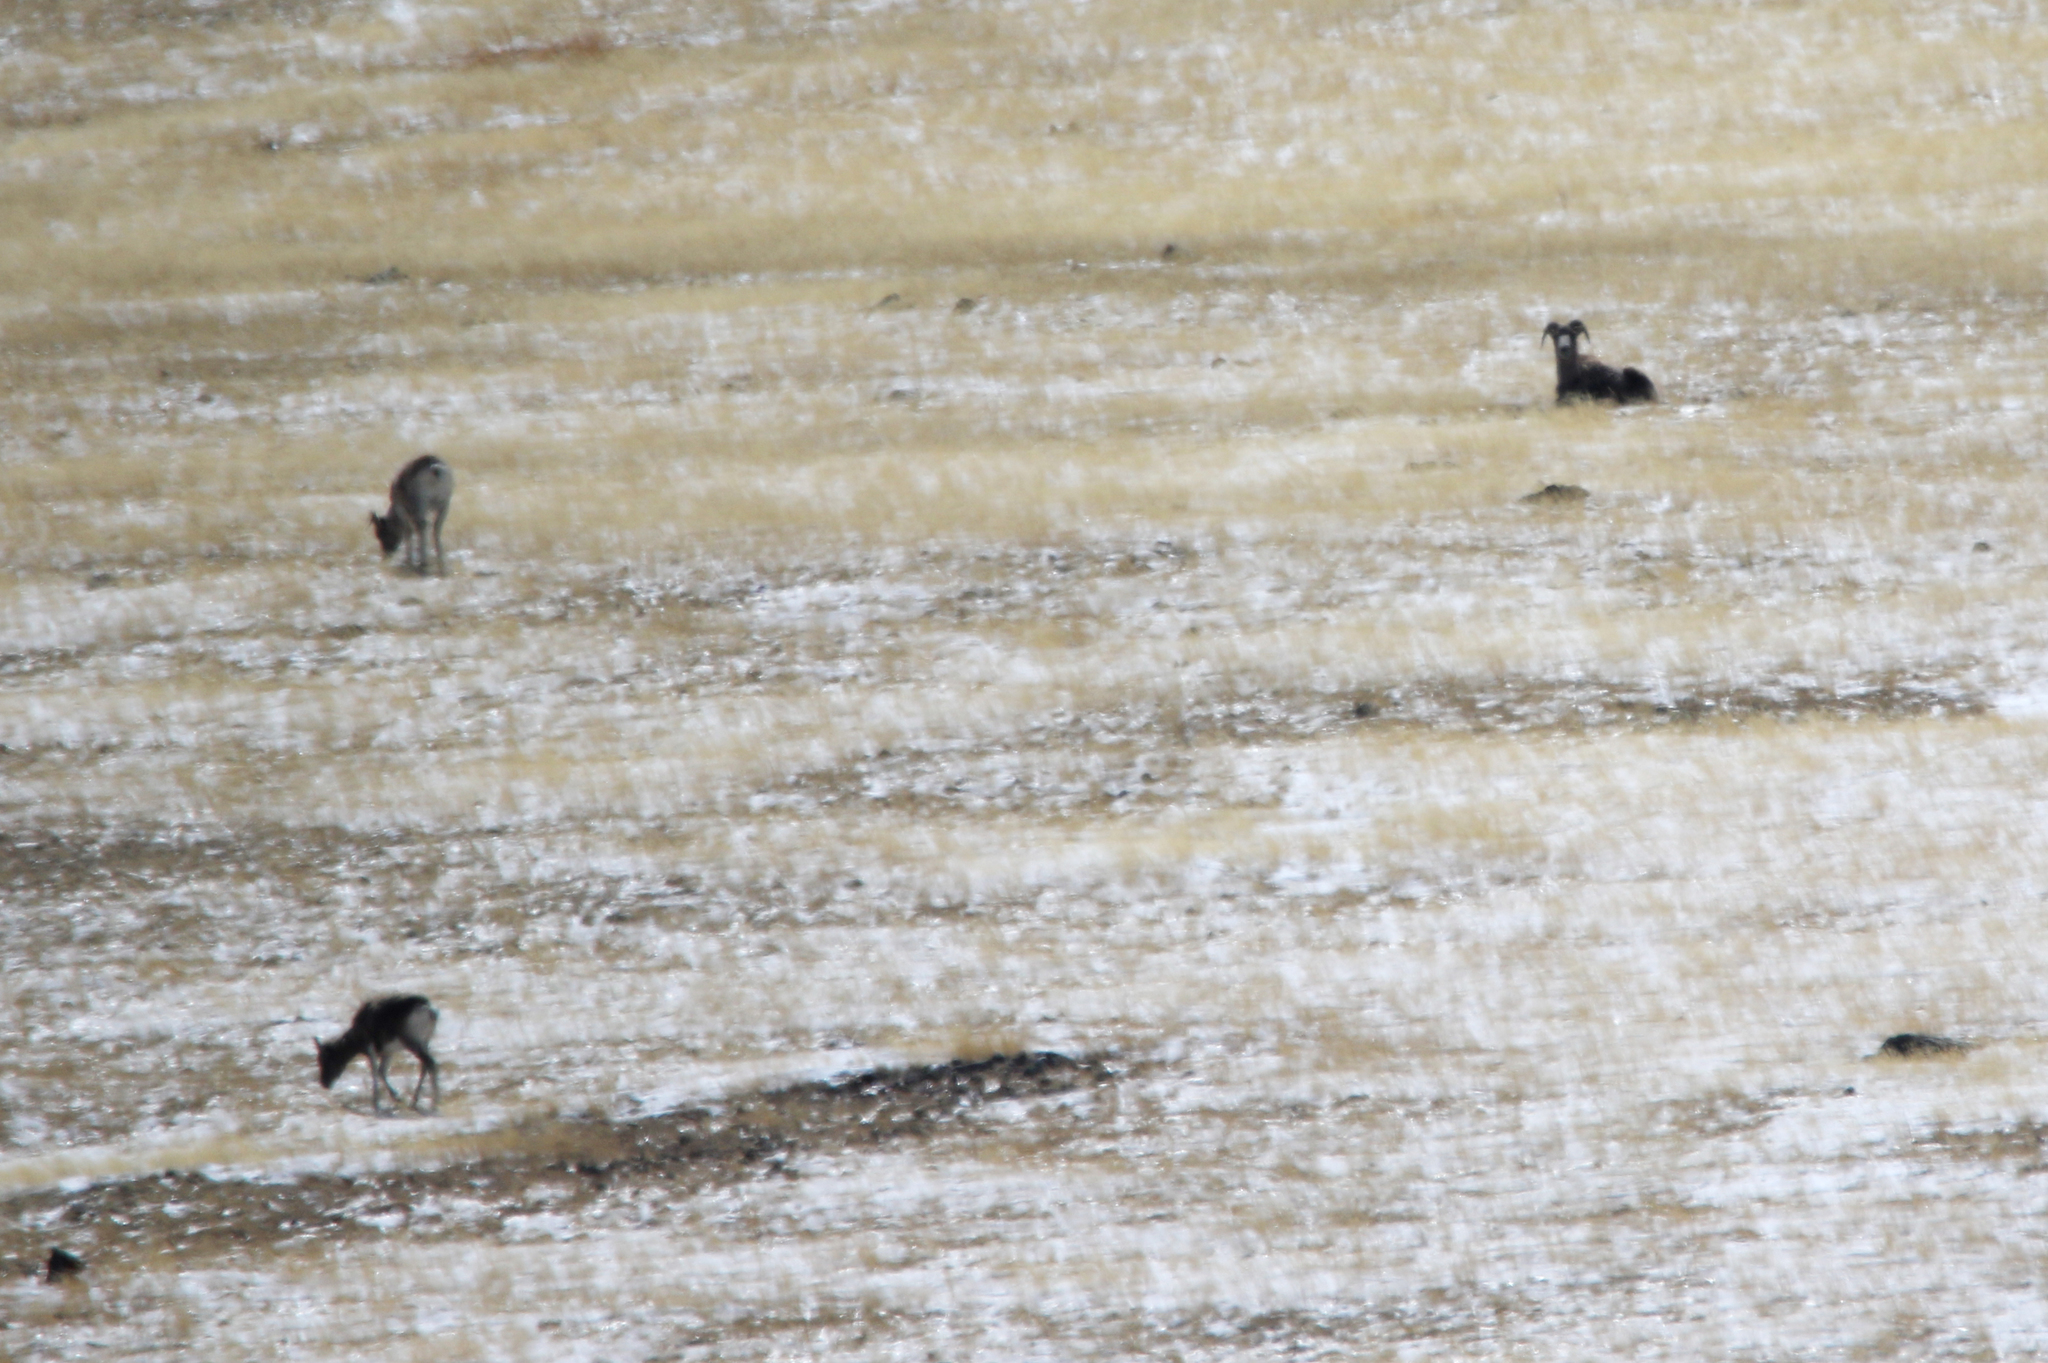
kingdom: Animalia
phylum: Chordata
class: Mammalia
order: Artiodactyla
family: Bovidae
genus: Ovis
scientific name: Ovis ammon
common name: Argali
